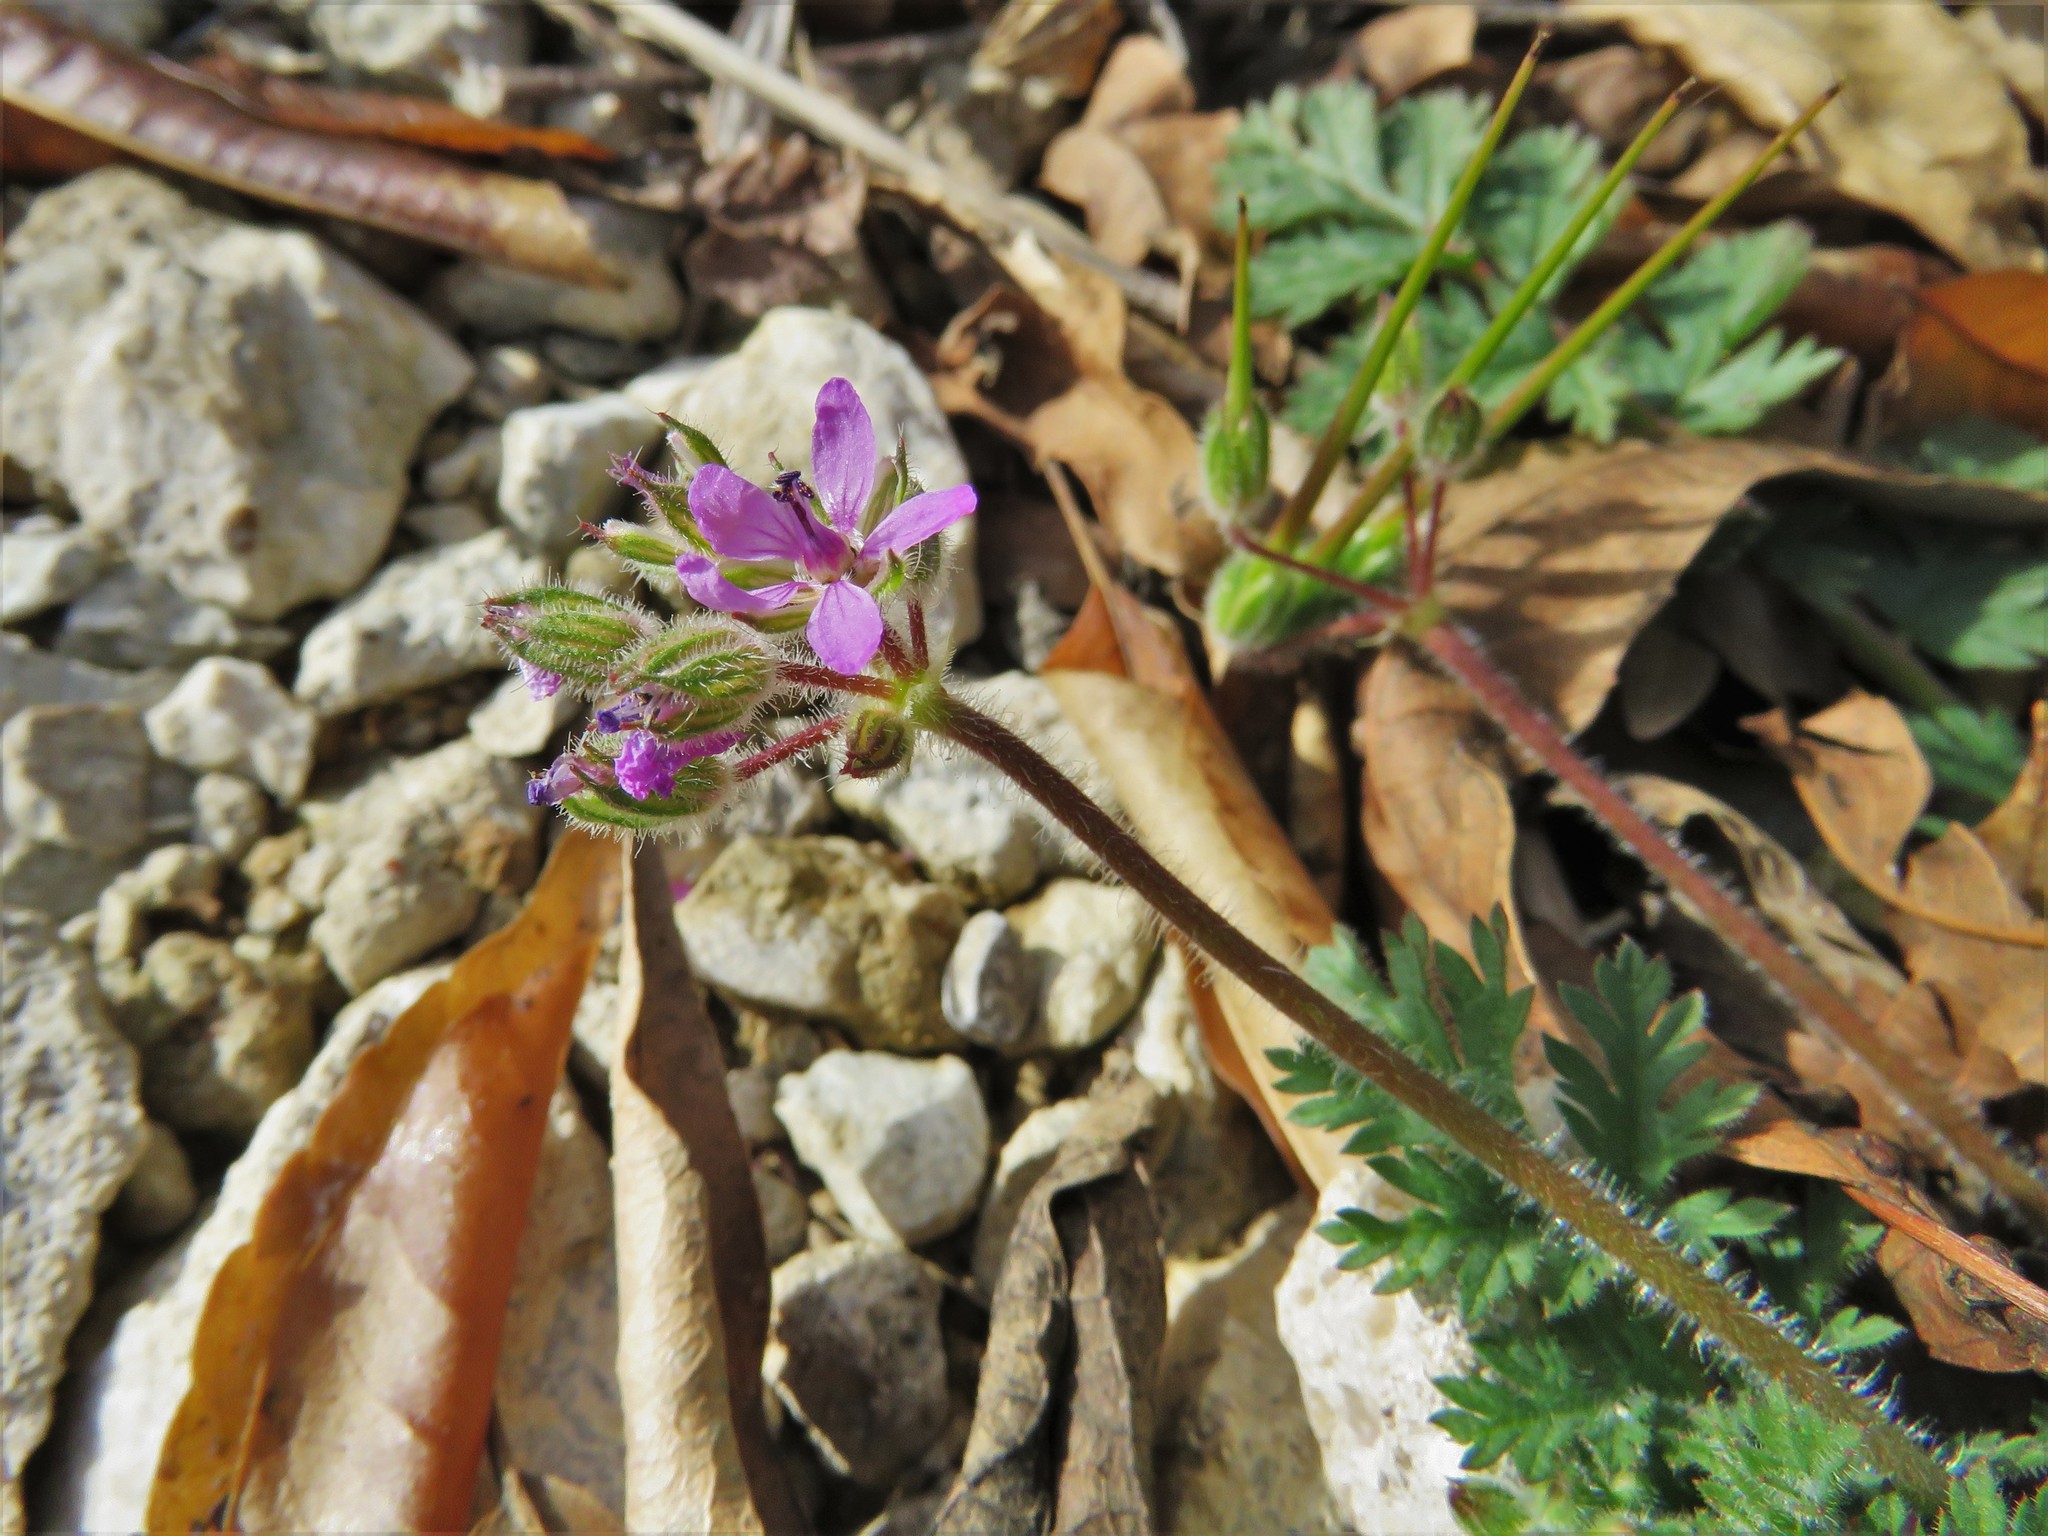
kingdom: Plantae
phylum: Tracheophyta
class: Magnoliopsida
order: Geraniales
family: Geraniaceae
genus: Erodium
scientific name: Erodium cicutarium
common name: Common stork's-bill
